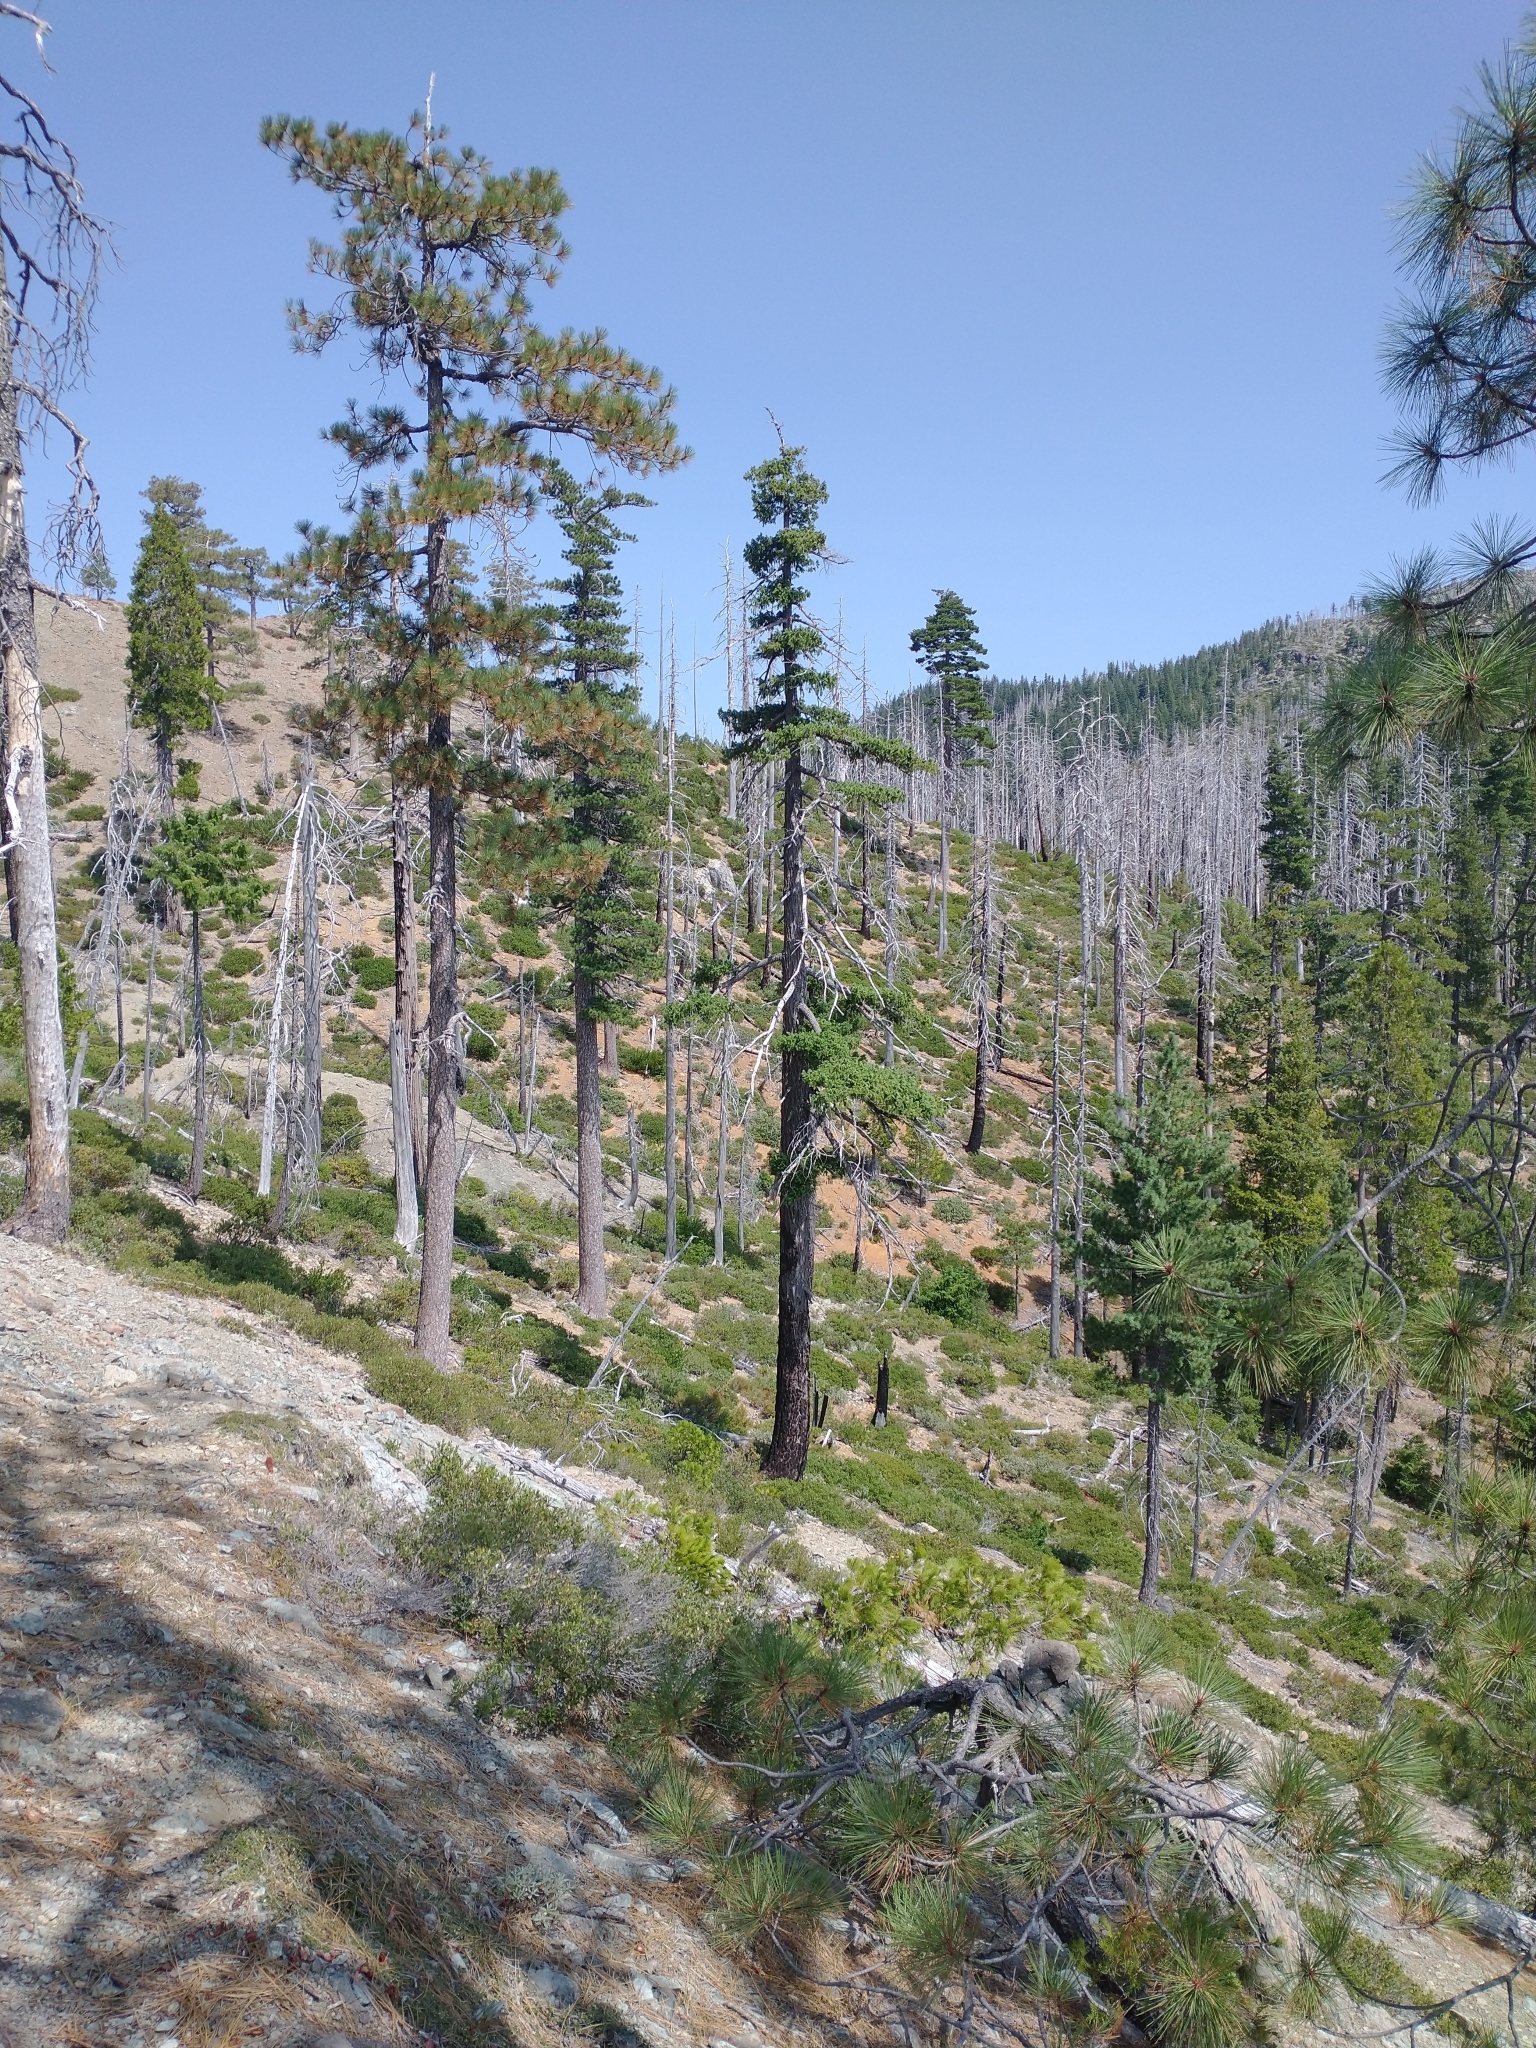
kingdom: Plantae
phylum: Tracheophyta
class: Pinopsida
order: Pinales
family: Pinaceae
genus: Pinus
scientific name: Pinus jeffreyi
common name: Jeffrey pine
